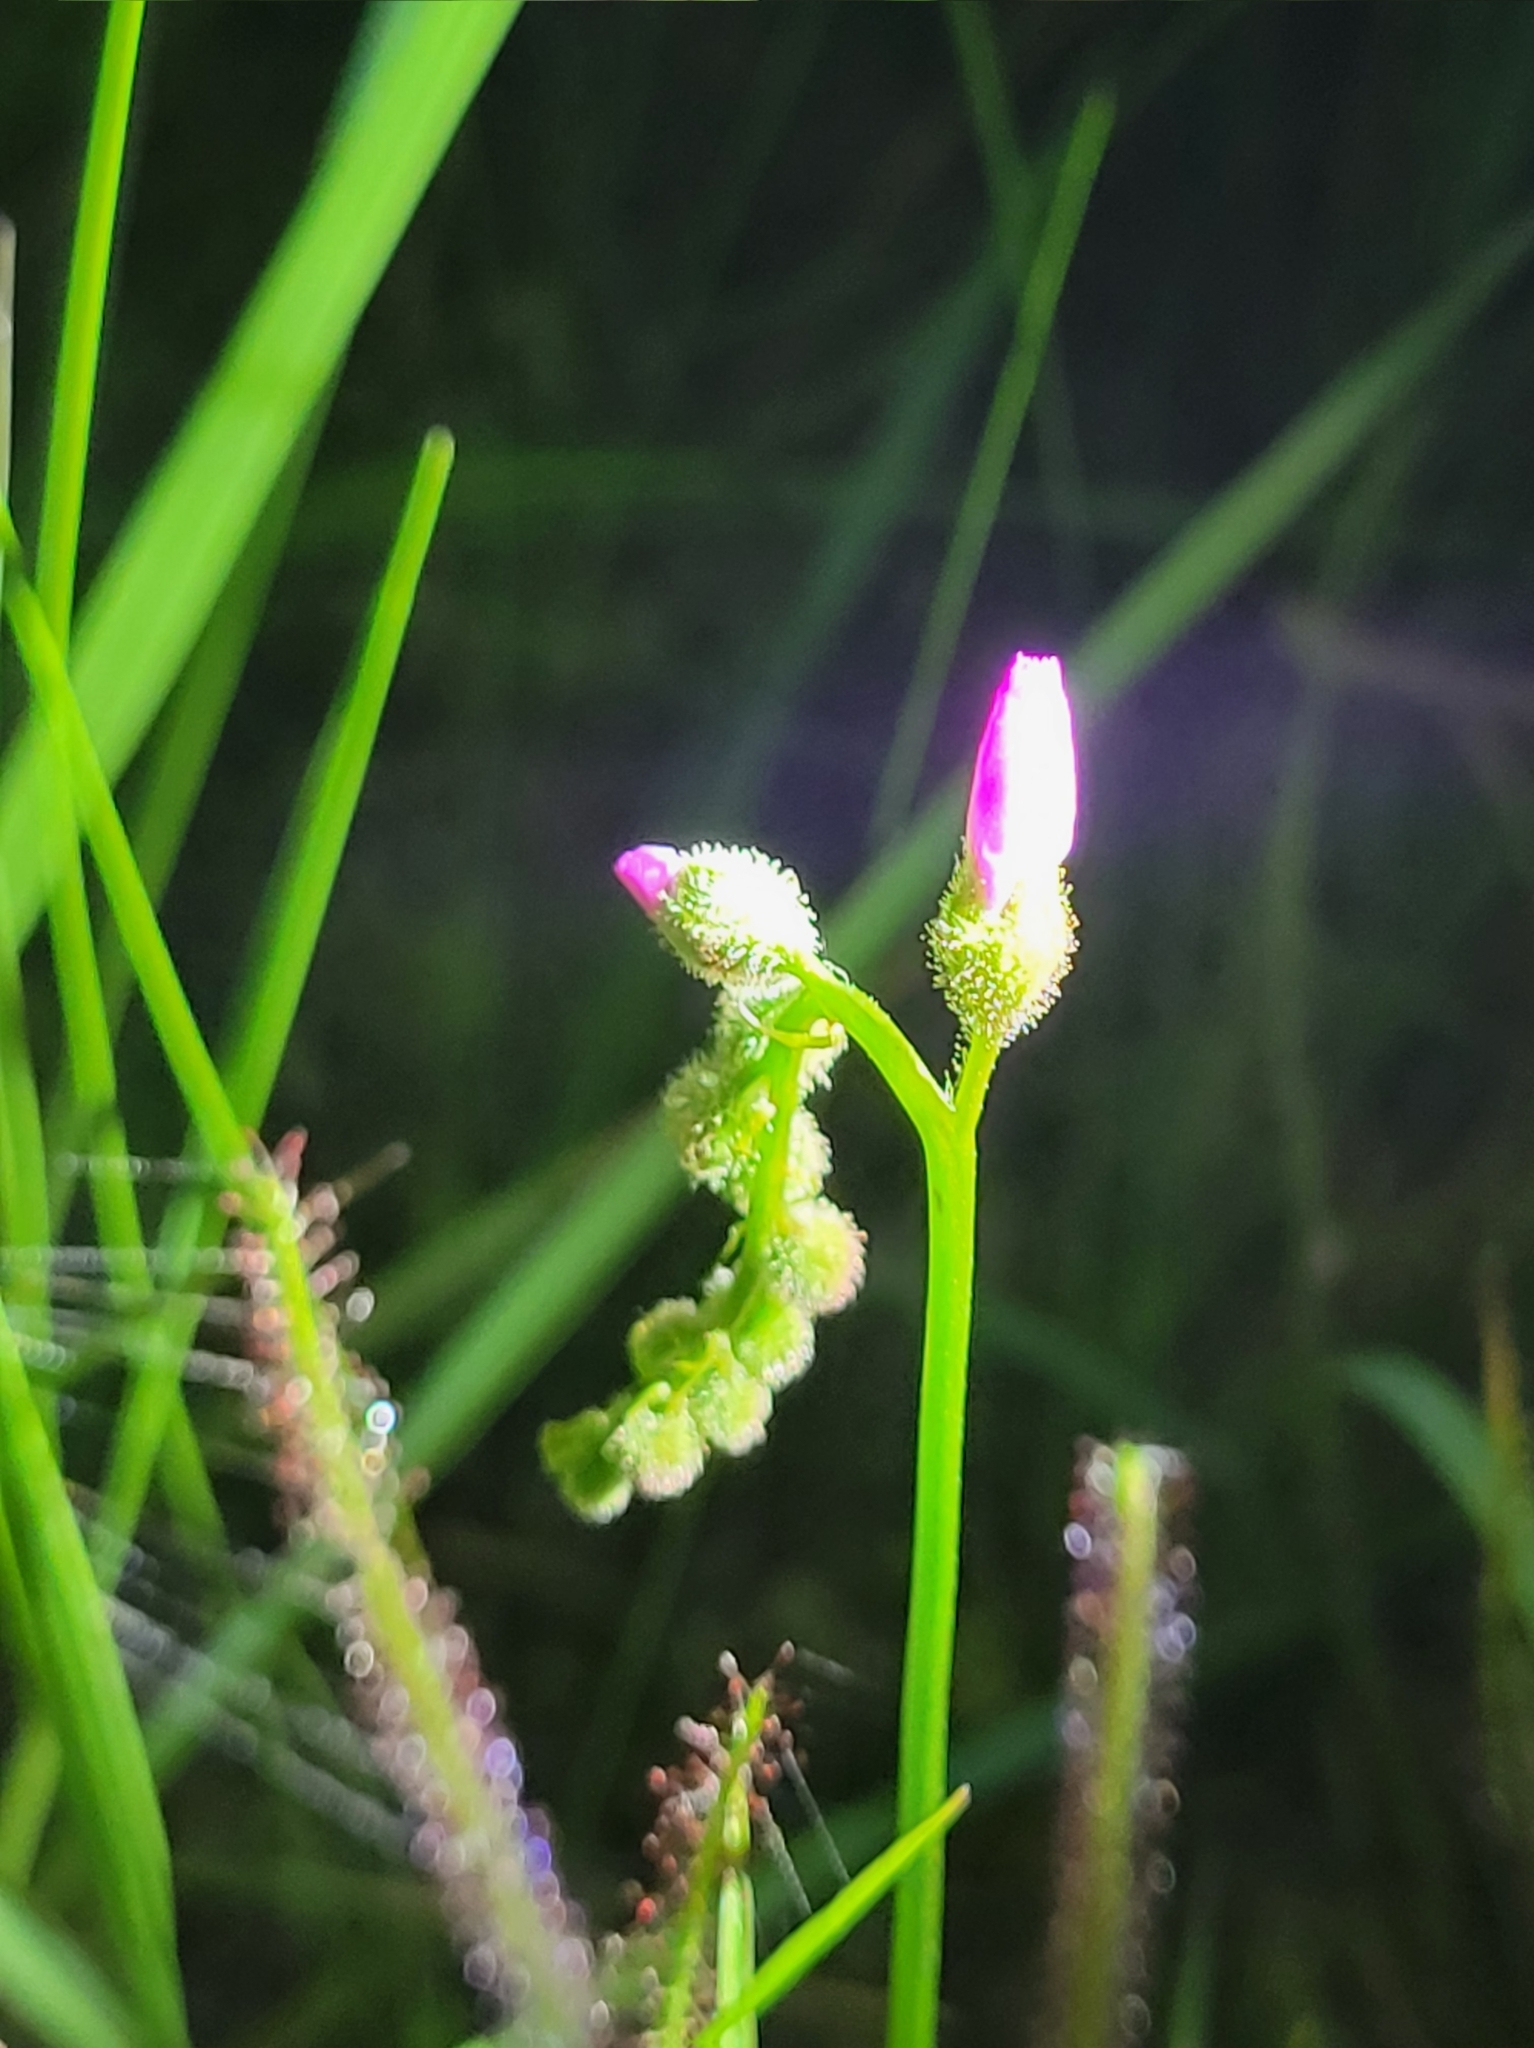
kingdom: Plantae
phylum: Tracheophyta
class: Magnoliopsida
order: Caryophyllales
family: Droseraceae
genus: Drosera
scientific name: Drosera filiformis
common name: Dew-thread
